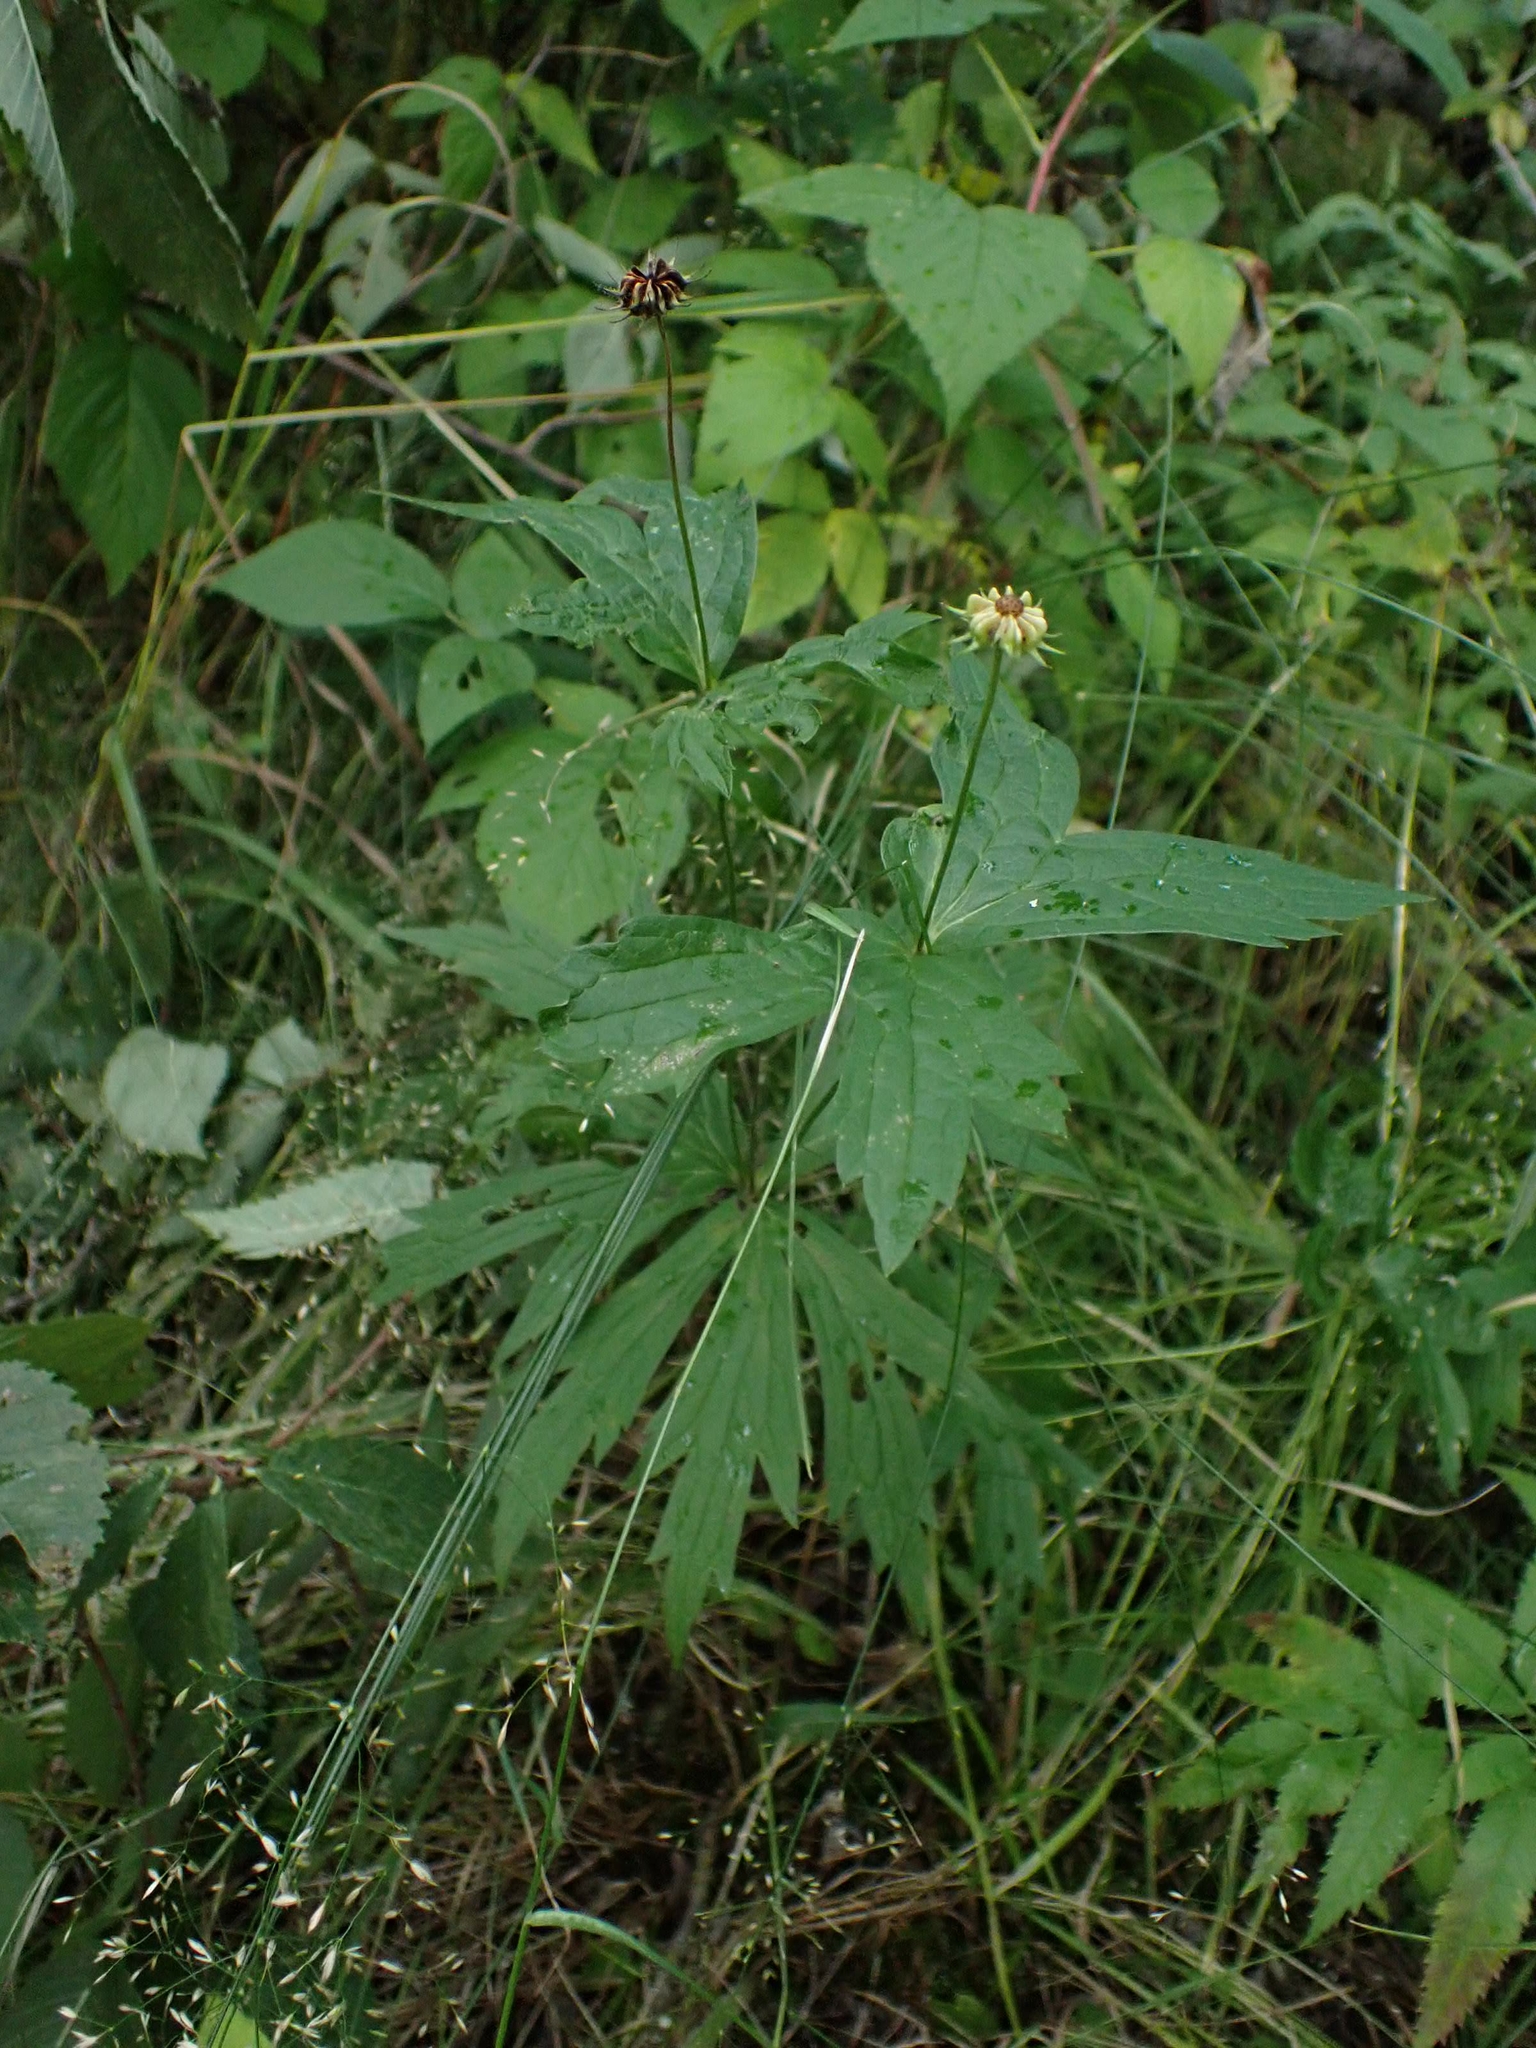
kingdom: Plantae
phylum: Tracheophyta
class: Magnoliopsida
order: Ranunculales
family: Ranunculaceae
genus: Anemonastrum
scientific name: Anemonastrum canadense
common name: Canada anemone
